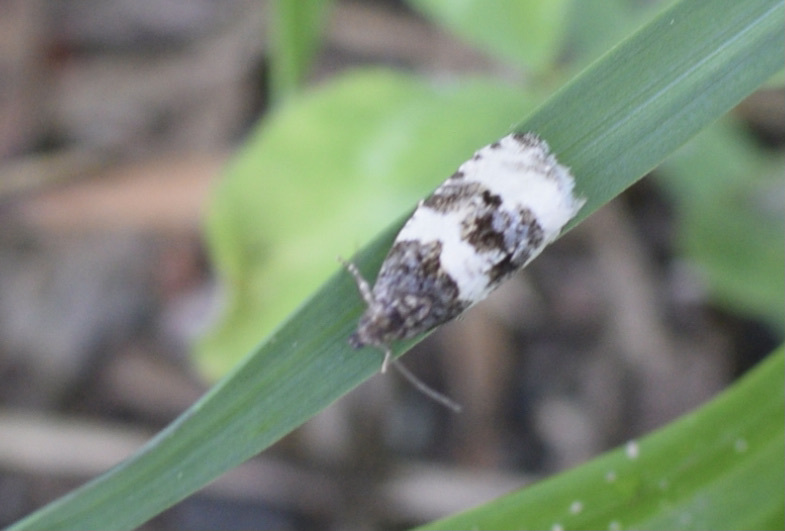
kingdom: Animalia
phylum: Arthropoda
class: Insecta
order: Lepidoptera
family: Tortricidae
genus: Olethreutes
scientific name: Olethreutes bipartitana
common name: Divided olethreutes moth
